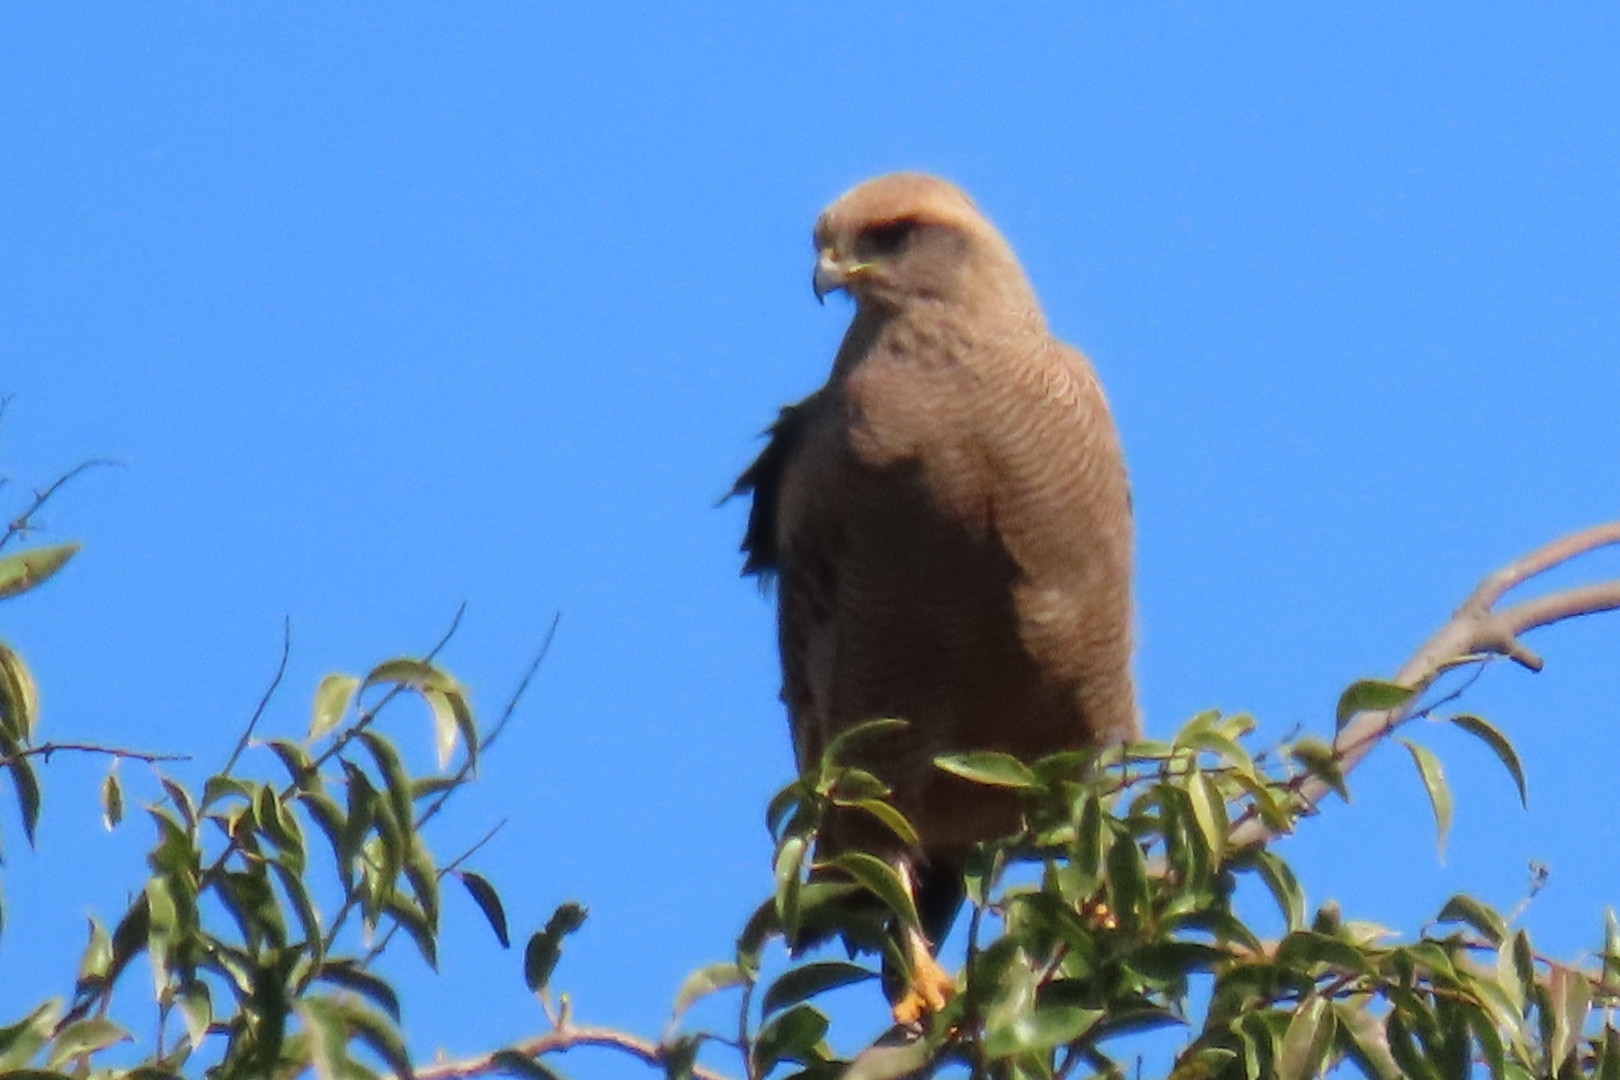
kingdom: Animalia
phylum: Chordata
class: Aves
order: Accipitriformes
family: Accipitridae
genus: Buteogallus
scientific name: Buteogallus meridionalis
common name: Savanna hawk
